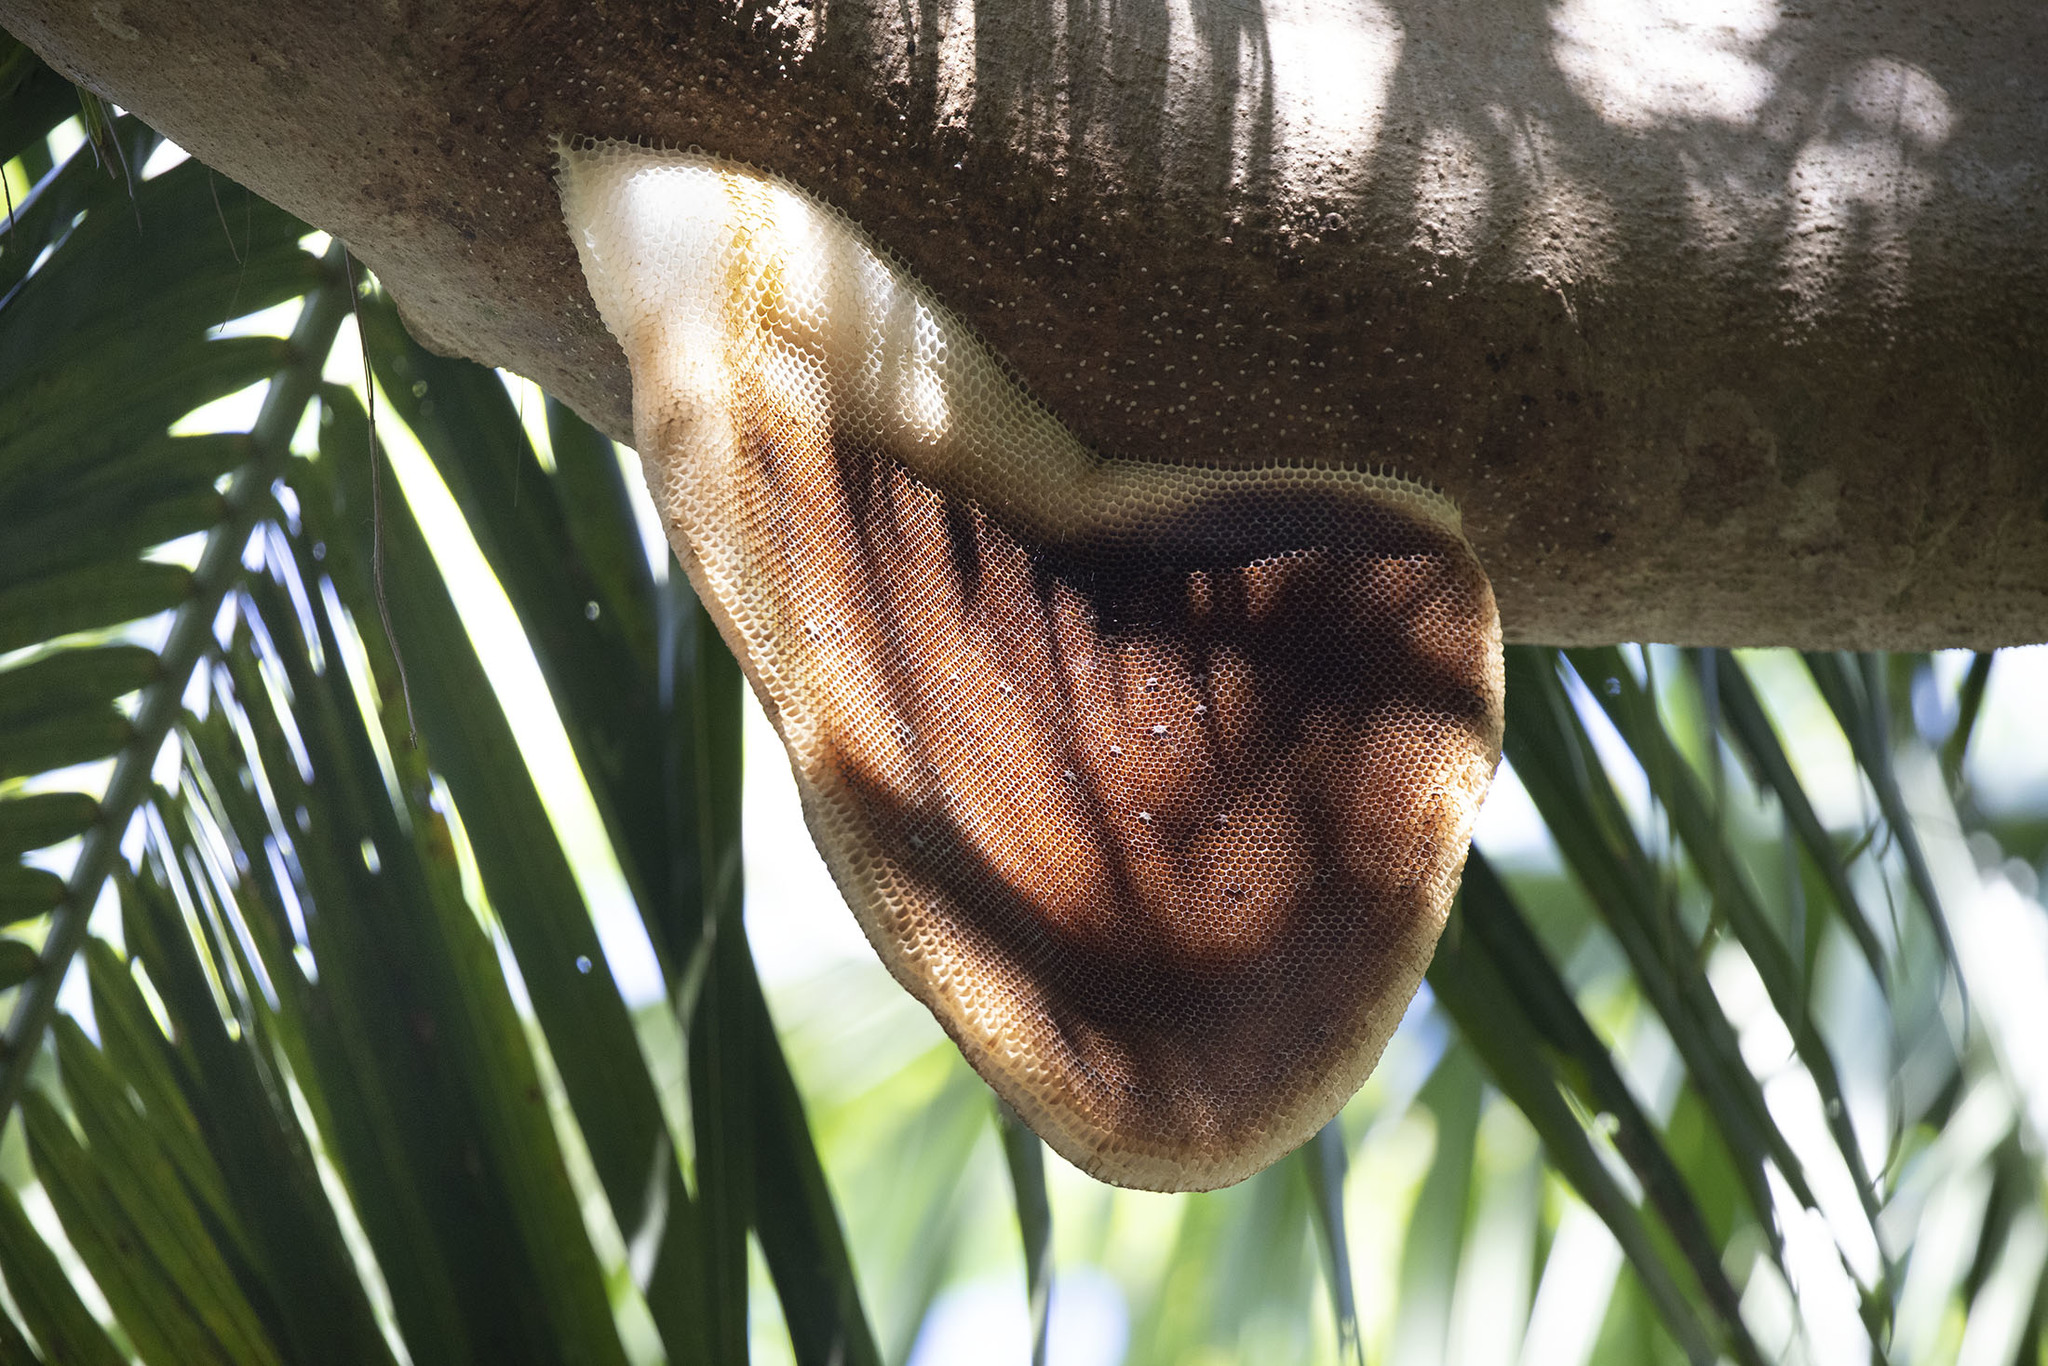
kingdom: Animalia
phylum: Arthropoda
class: Insecta
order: Hymenoptera
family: Apidae
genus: Apis
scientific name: Apis dorsata
